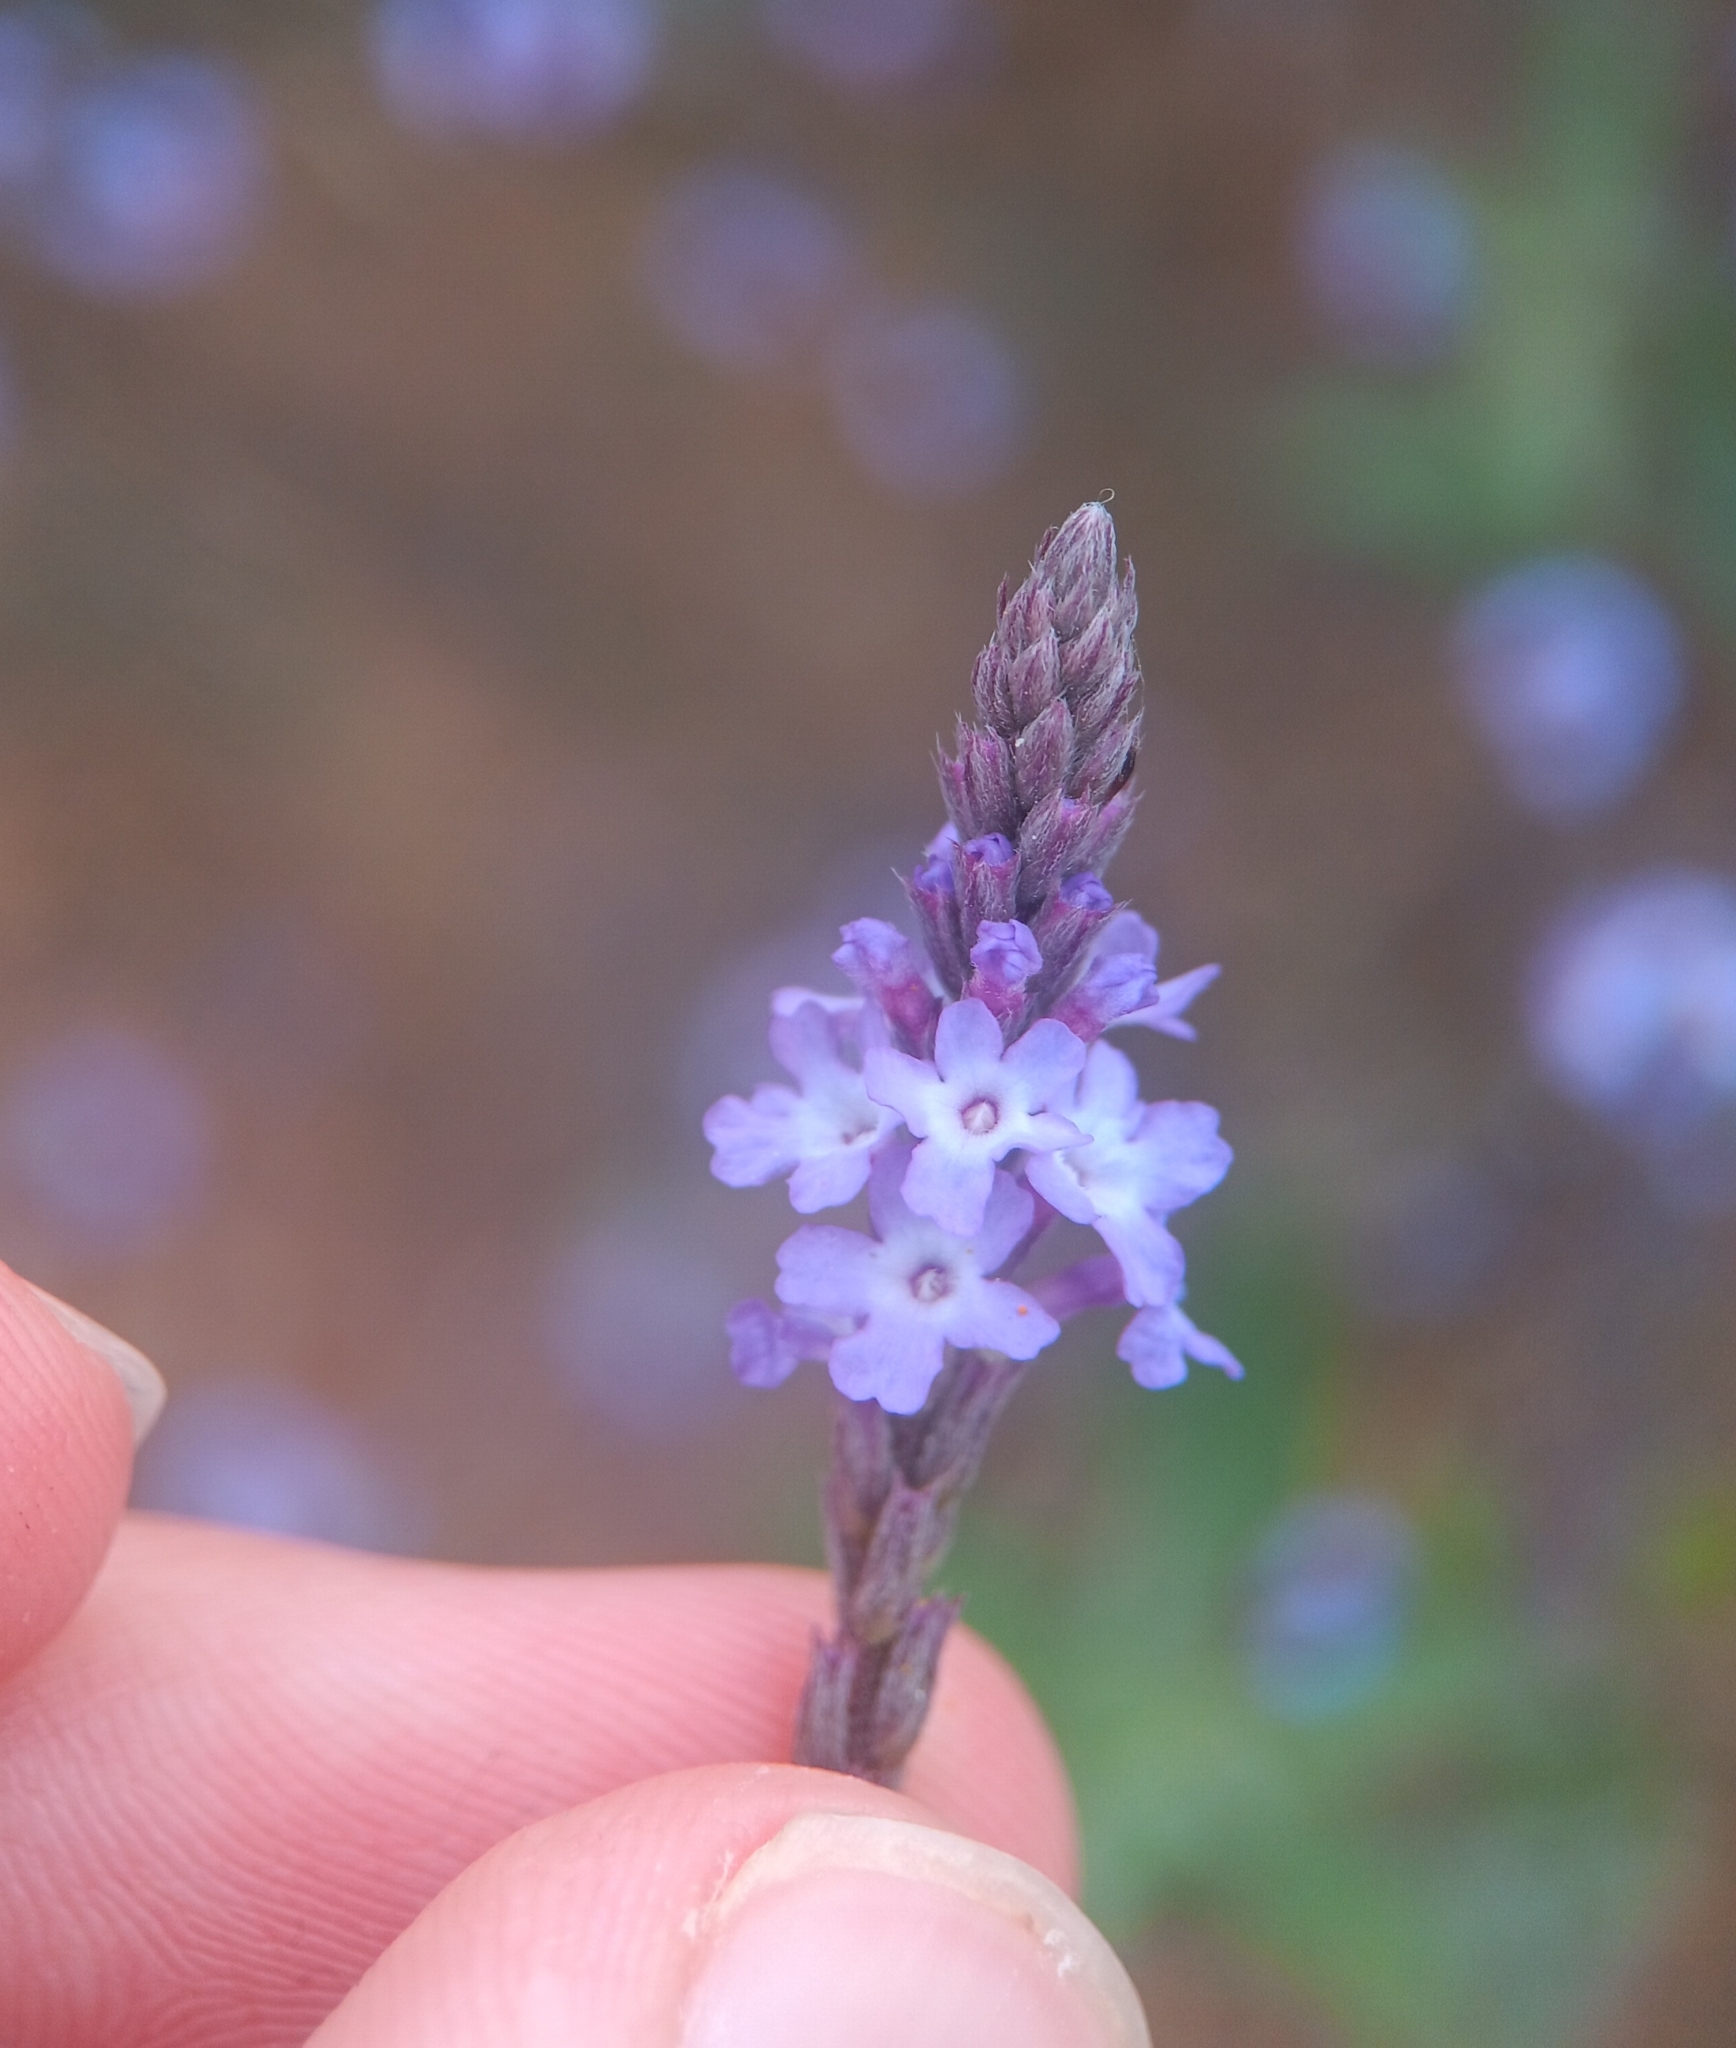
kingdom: Plantae
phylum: Tracheophyta
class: Magnoliopsida
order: Lamiales
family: Verbenaceae
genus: Verbena
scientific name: Verbena menthifolia
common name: Mint-leaf vervain
